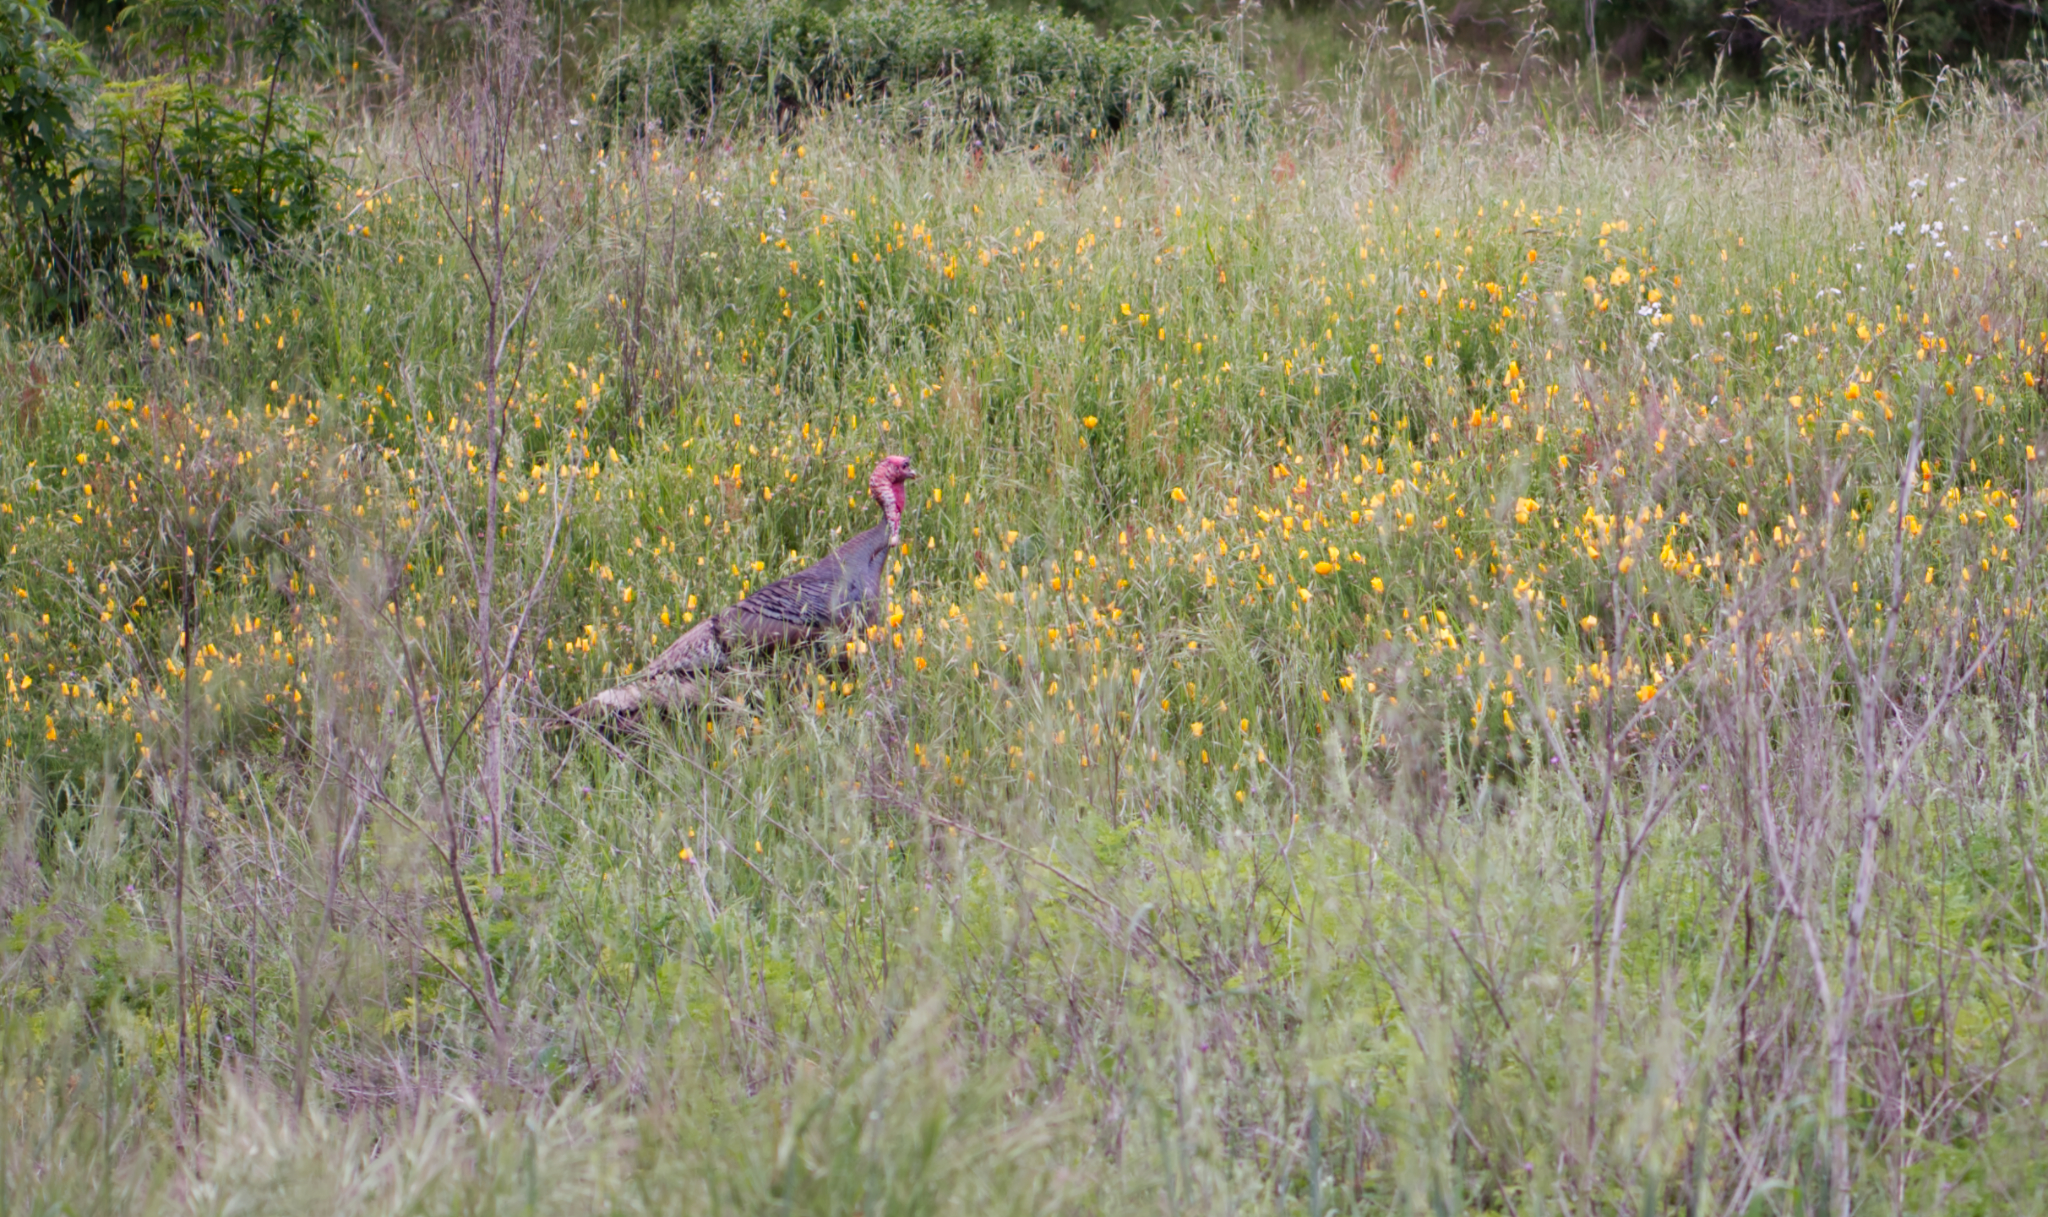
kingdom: Animalia
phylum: Chordata
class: Aves
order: Galliformes
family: Phasianidae
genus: Meleagris
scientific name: Meleagris gallopavo
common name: Wild turkey
